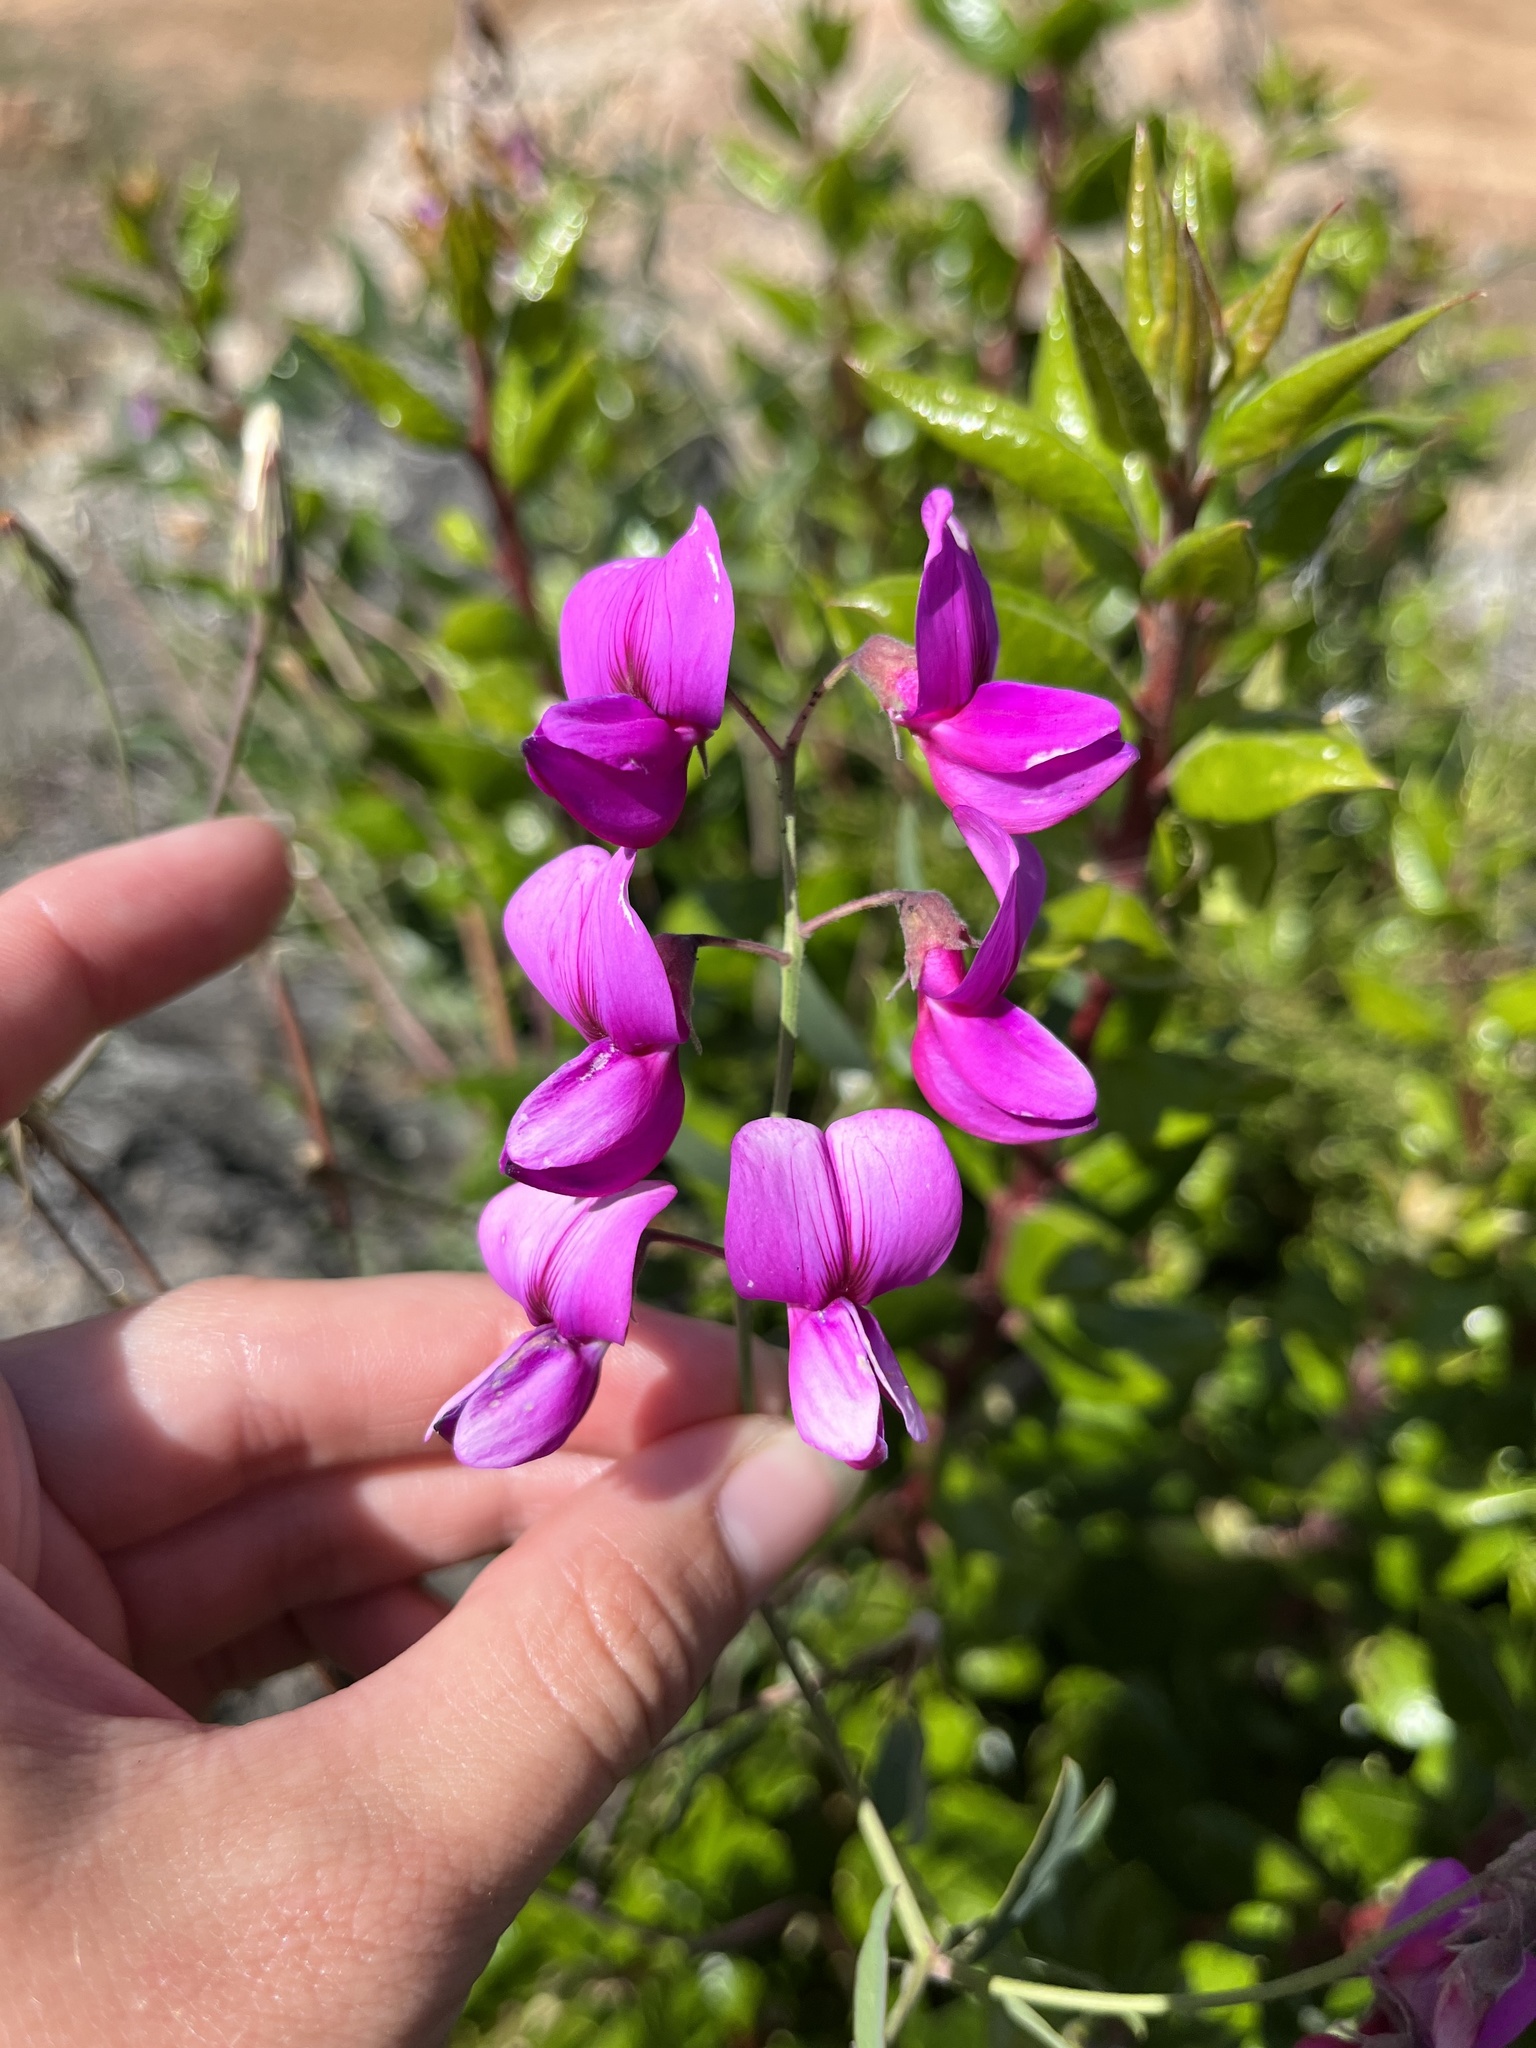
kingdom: Plantae
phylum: Tracheophyta
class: Magnoliopsida
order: Fabales
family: Fabaceae
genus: Lathyrus
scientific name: Lathyrus vestitus
